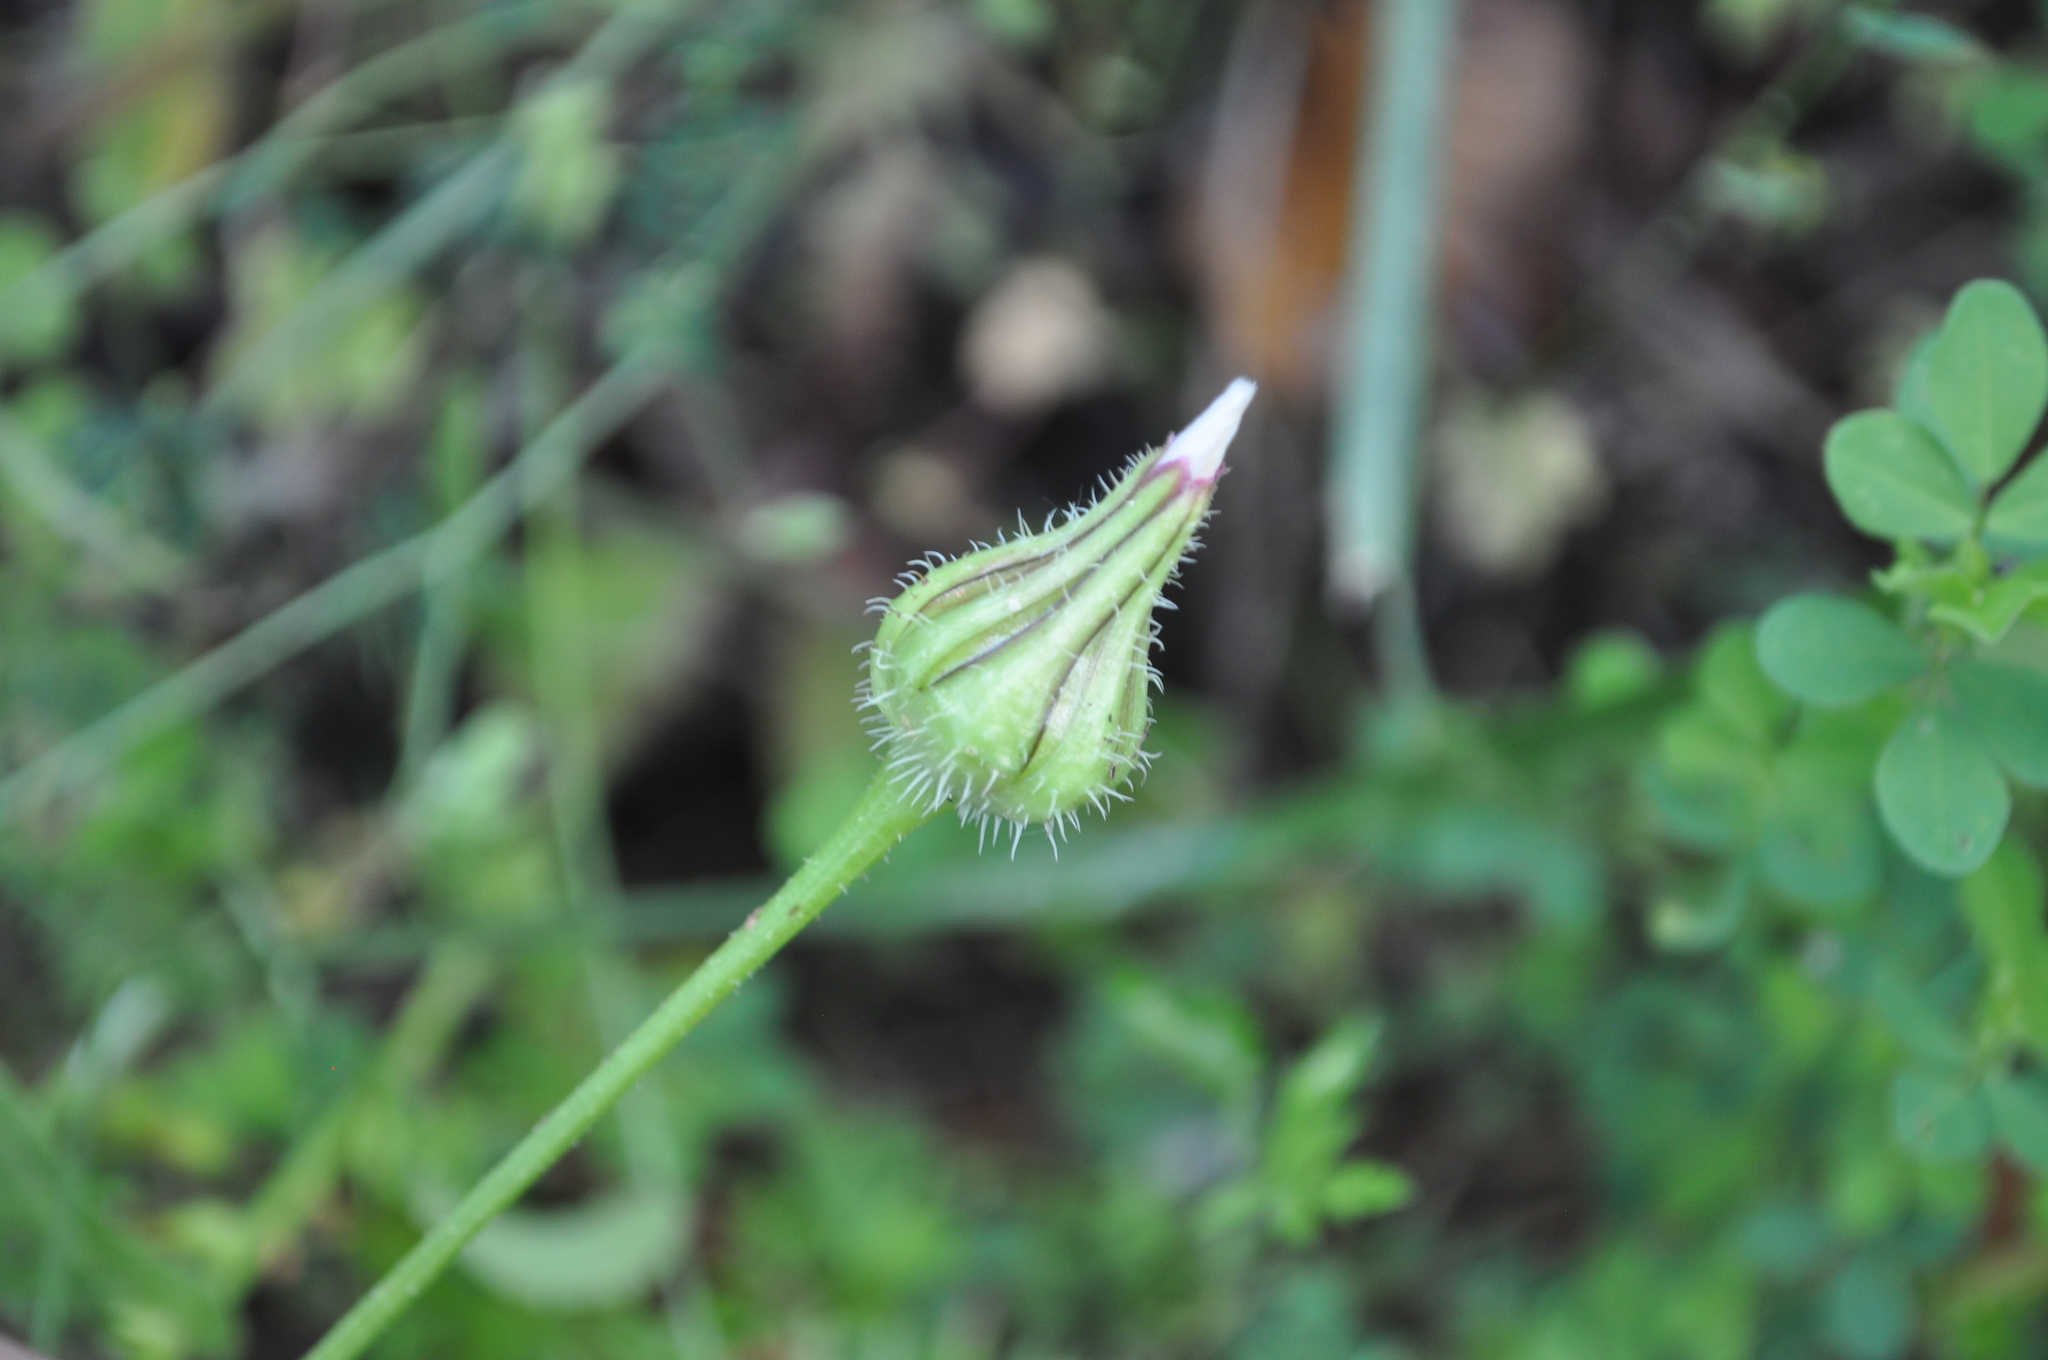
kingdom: Plantae
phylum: Tracheophyta
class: Magnoliopsida
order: Asterales
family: Asteraceae
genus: Urospermum
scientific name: Urospermum picroides
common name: False hawkbit
